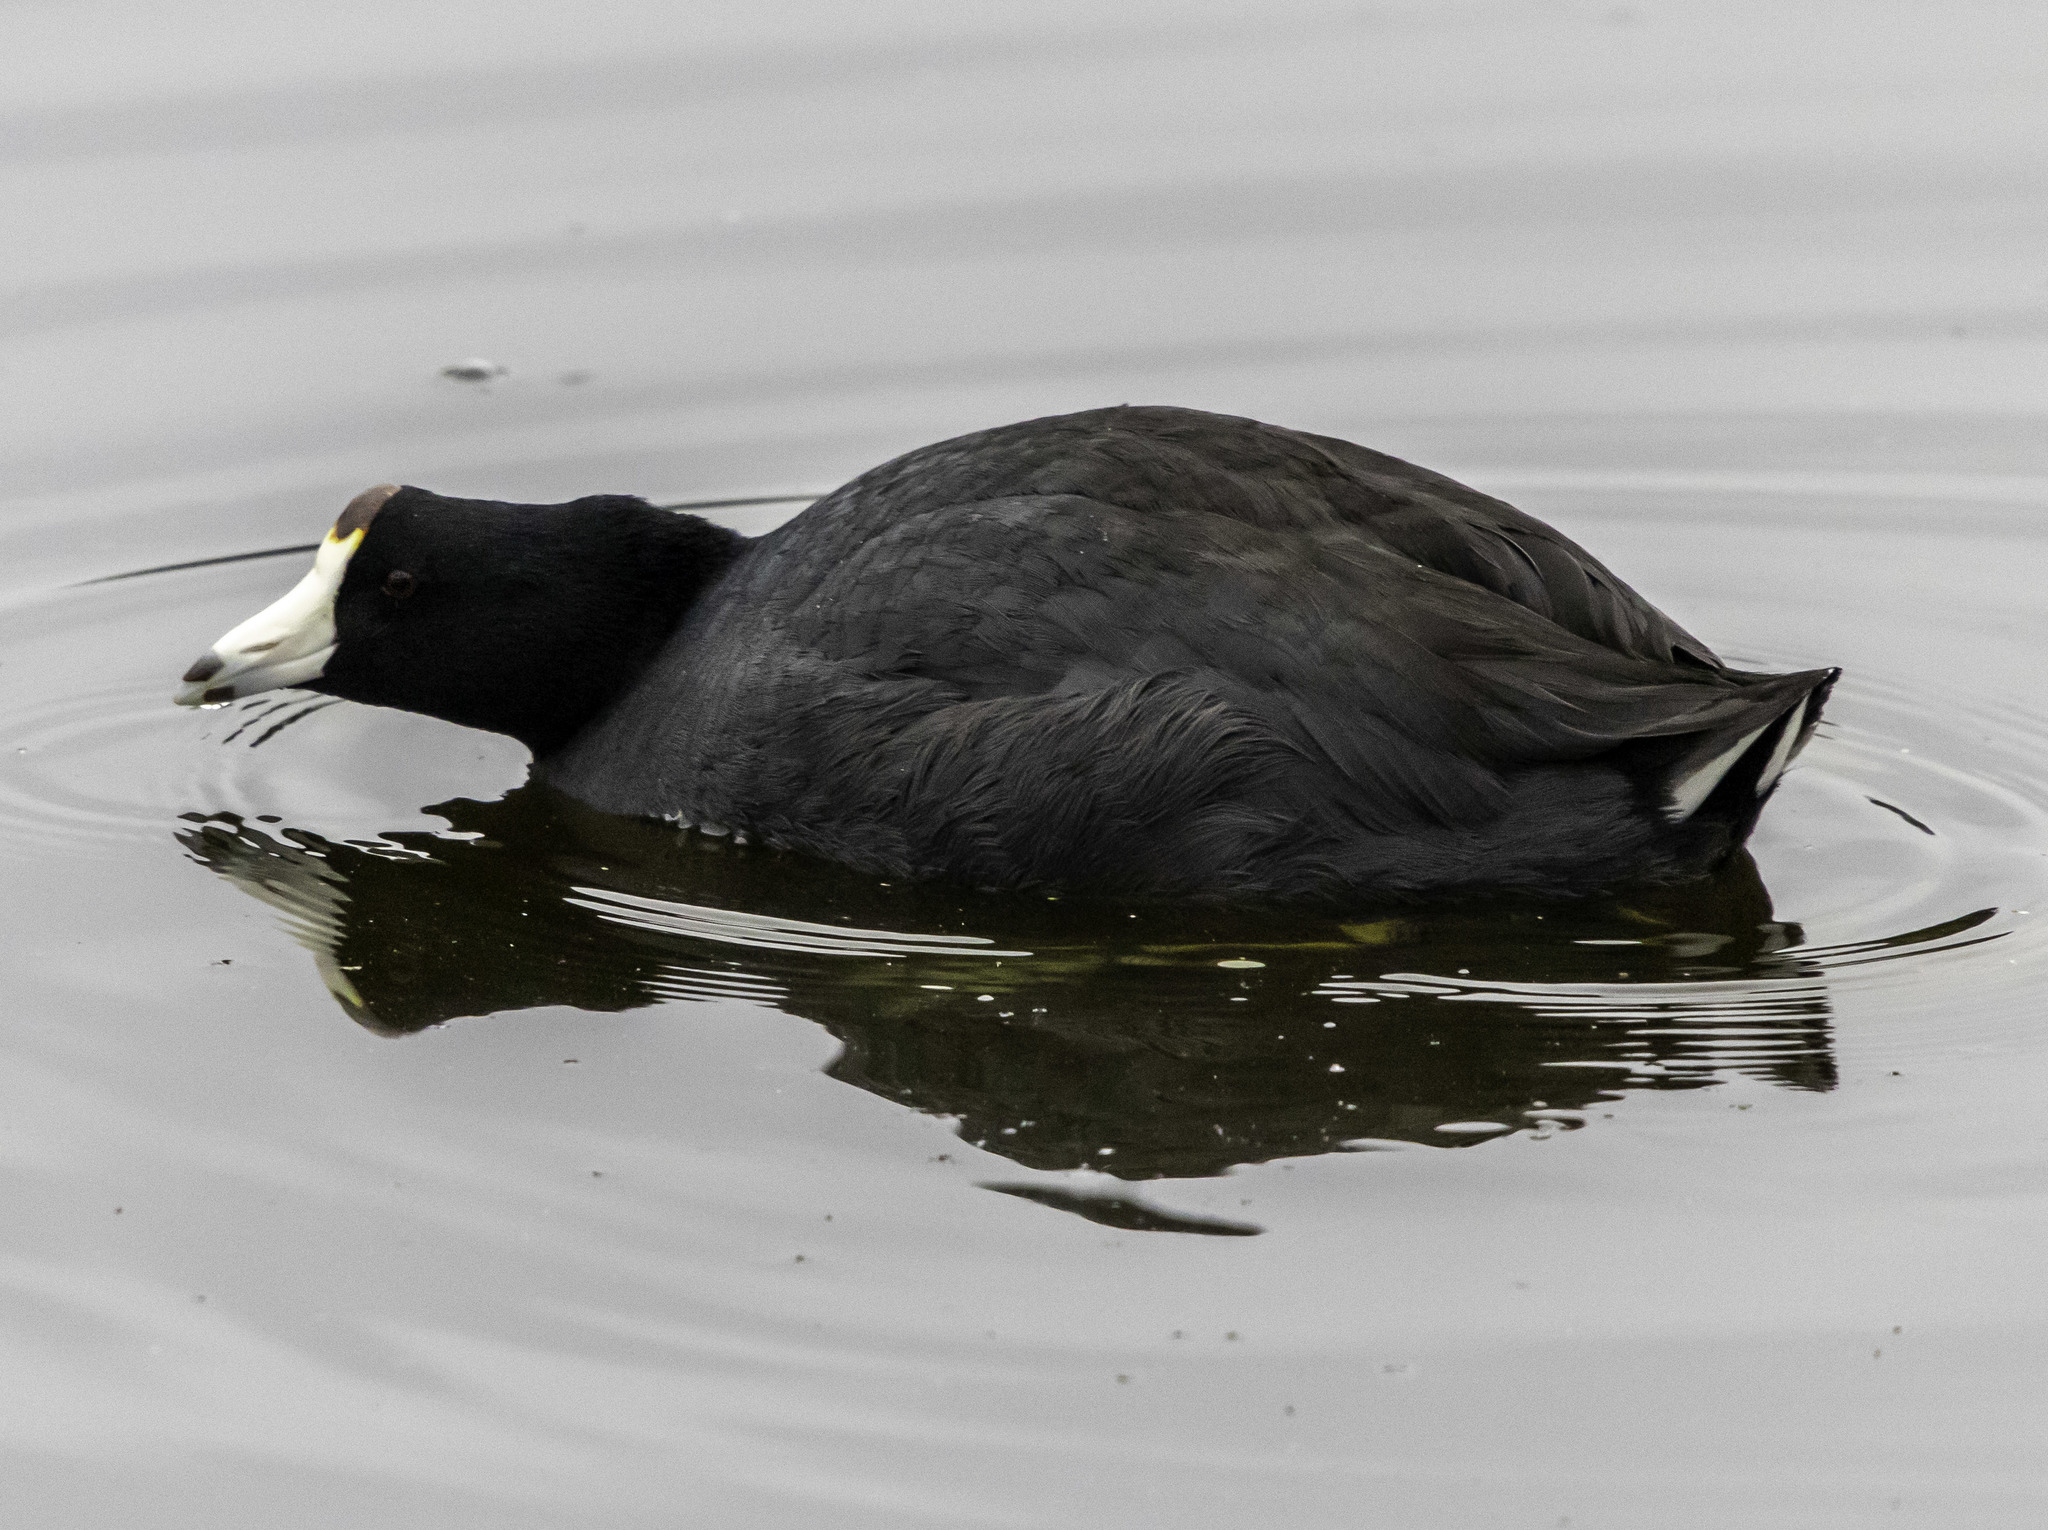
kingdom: Animalia
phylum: Chordata
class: Aves
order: Gruiformes
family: Rallidae
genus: Fulica
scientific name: Fulica americana
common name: American coot
